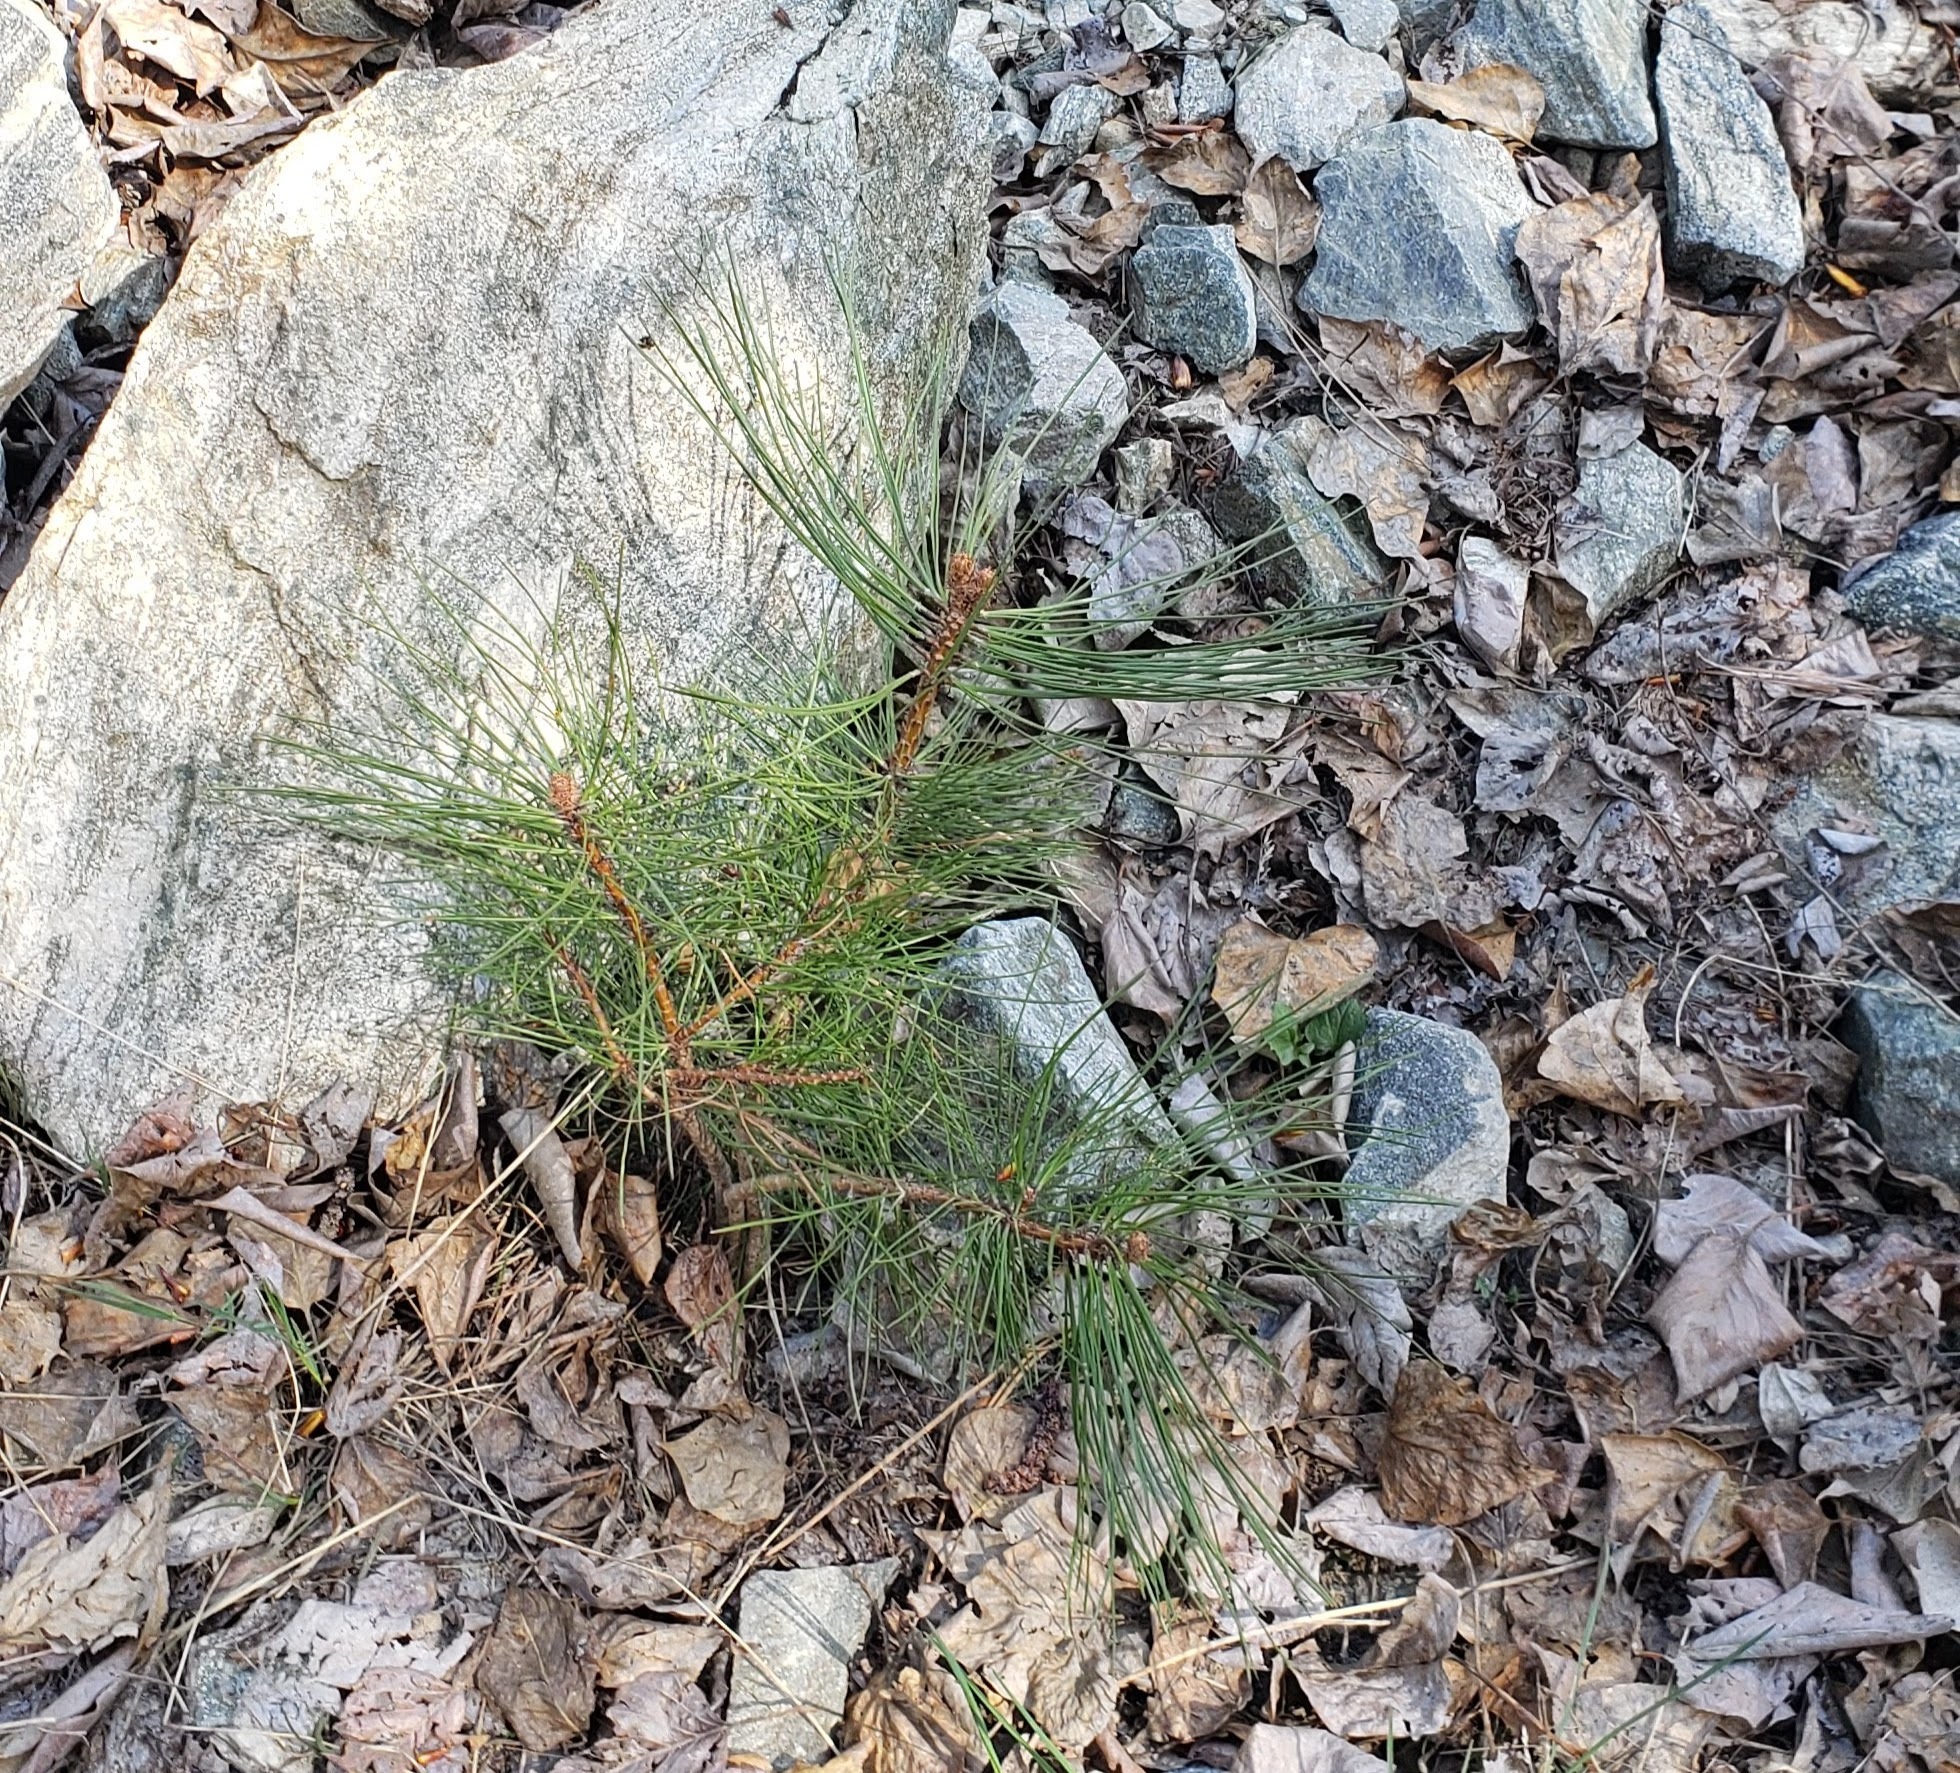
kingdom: Plantae
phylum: Tracheophyta
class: Pinopsida
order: Pinales
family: Pinaceae
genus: Pinus
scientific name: Pinus ponderosa
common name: Western yellow-pine
